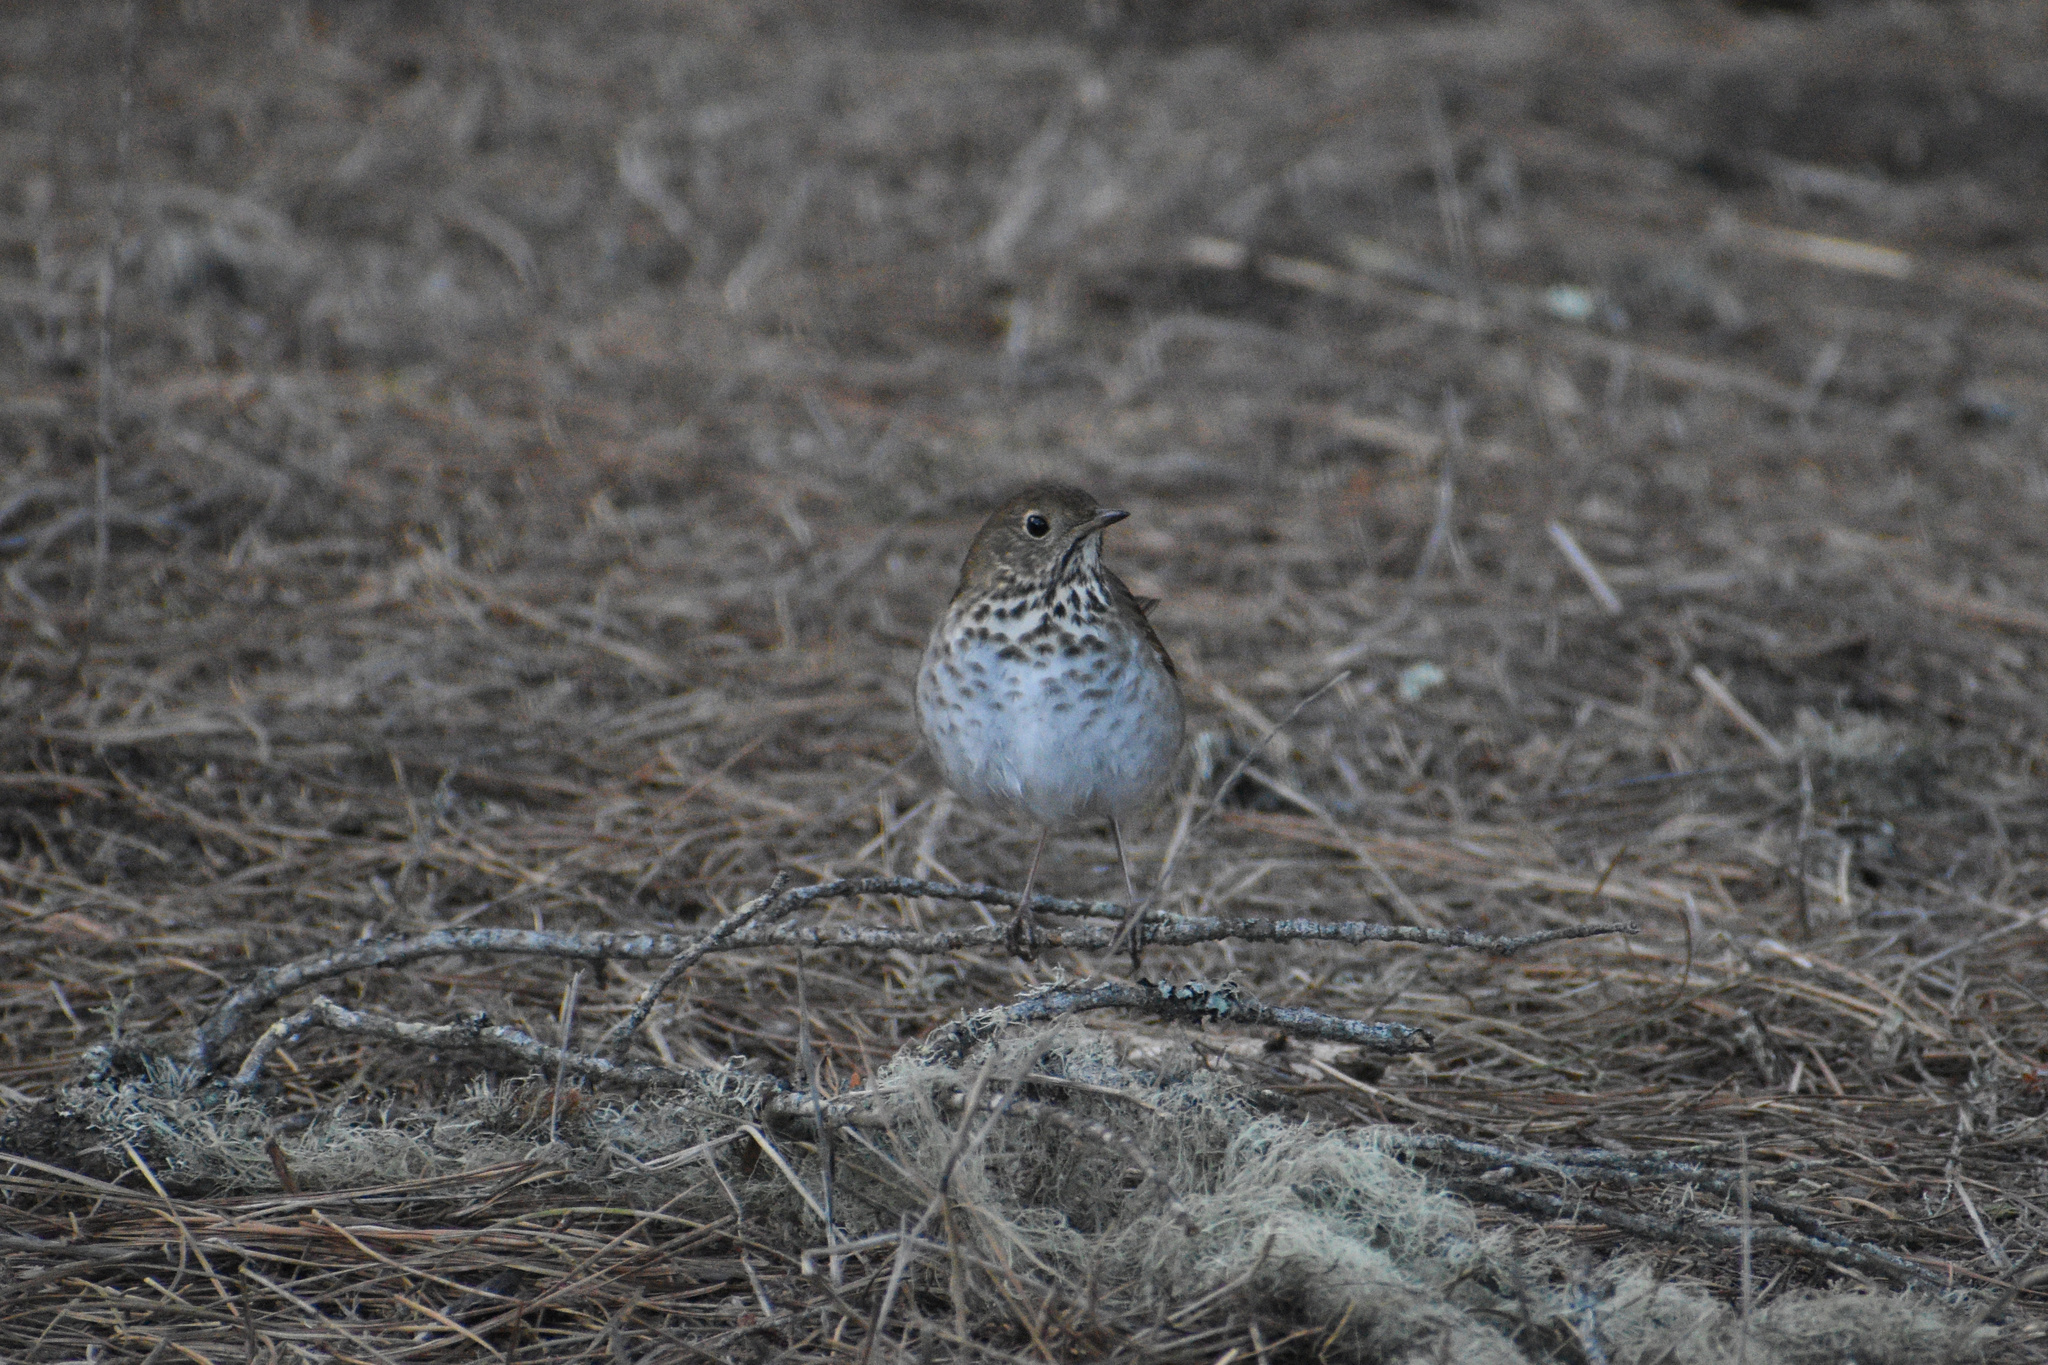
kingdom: Animalia
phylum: Chordata
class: Aves
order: Passeriformes
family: Turdidae
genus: Catharus
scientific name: Catharus guttatus
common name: Hermit thrush
